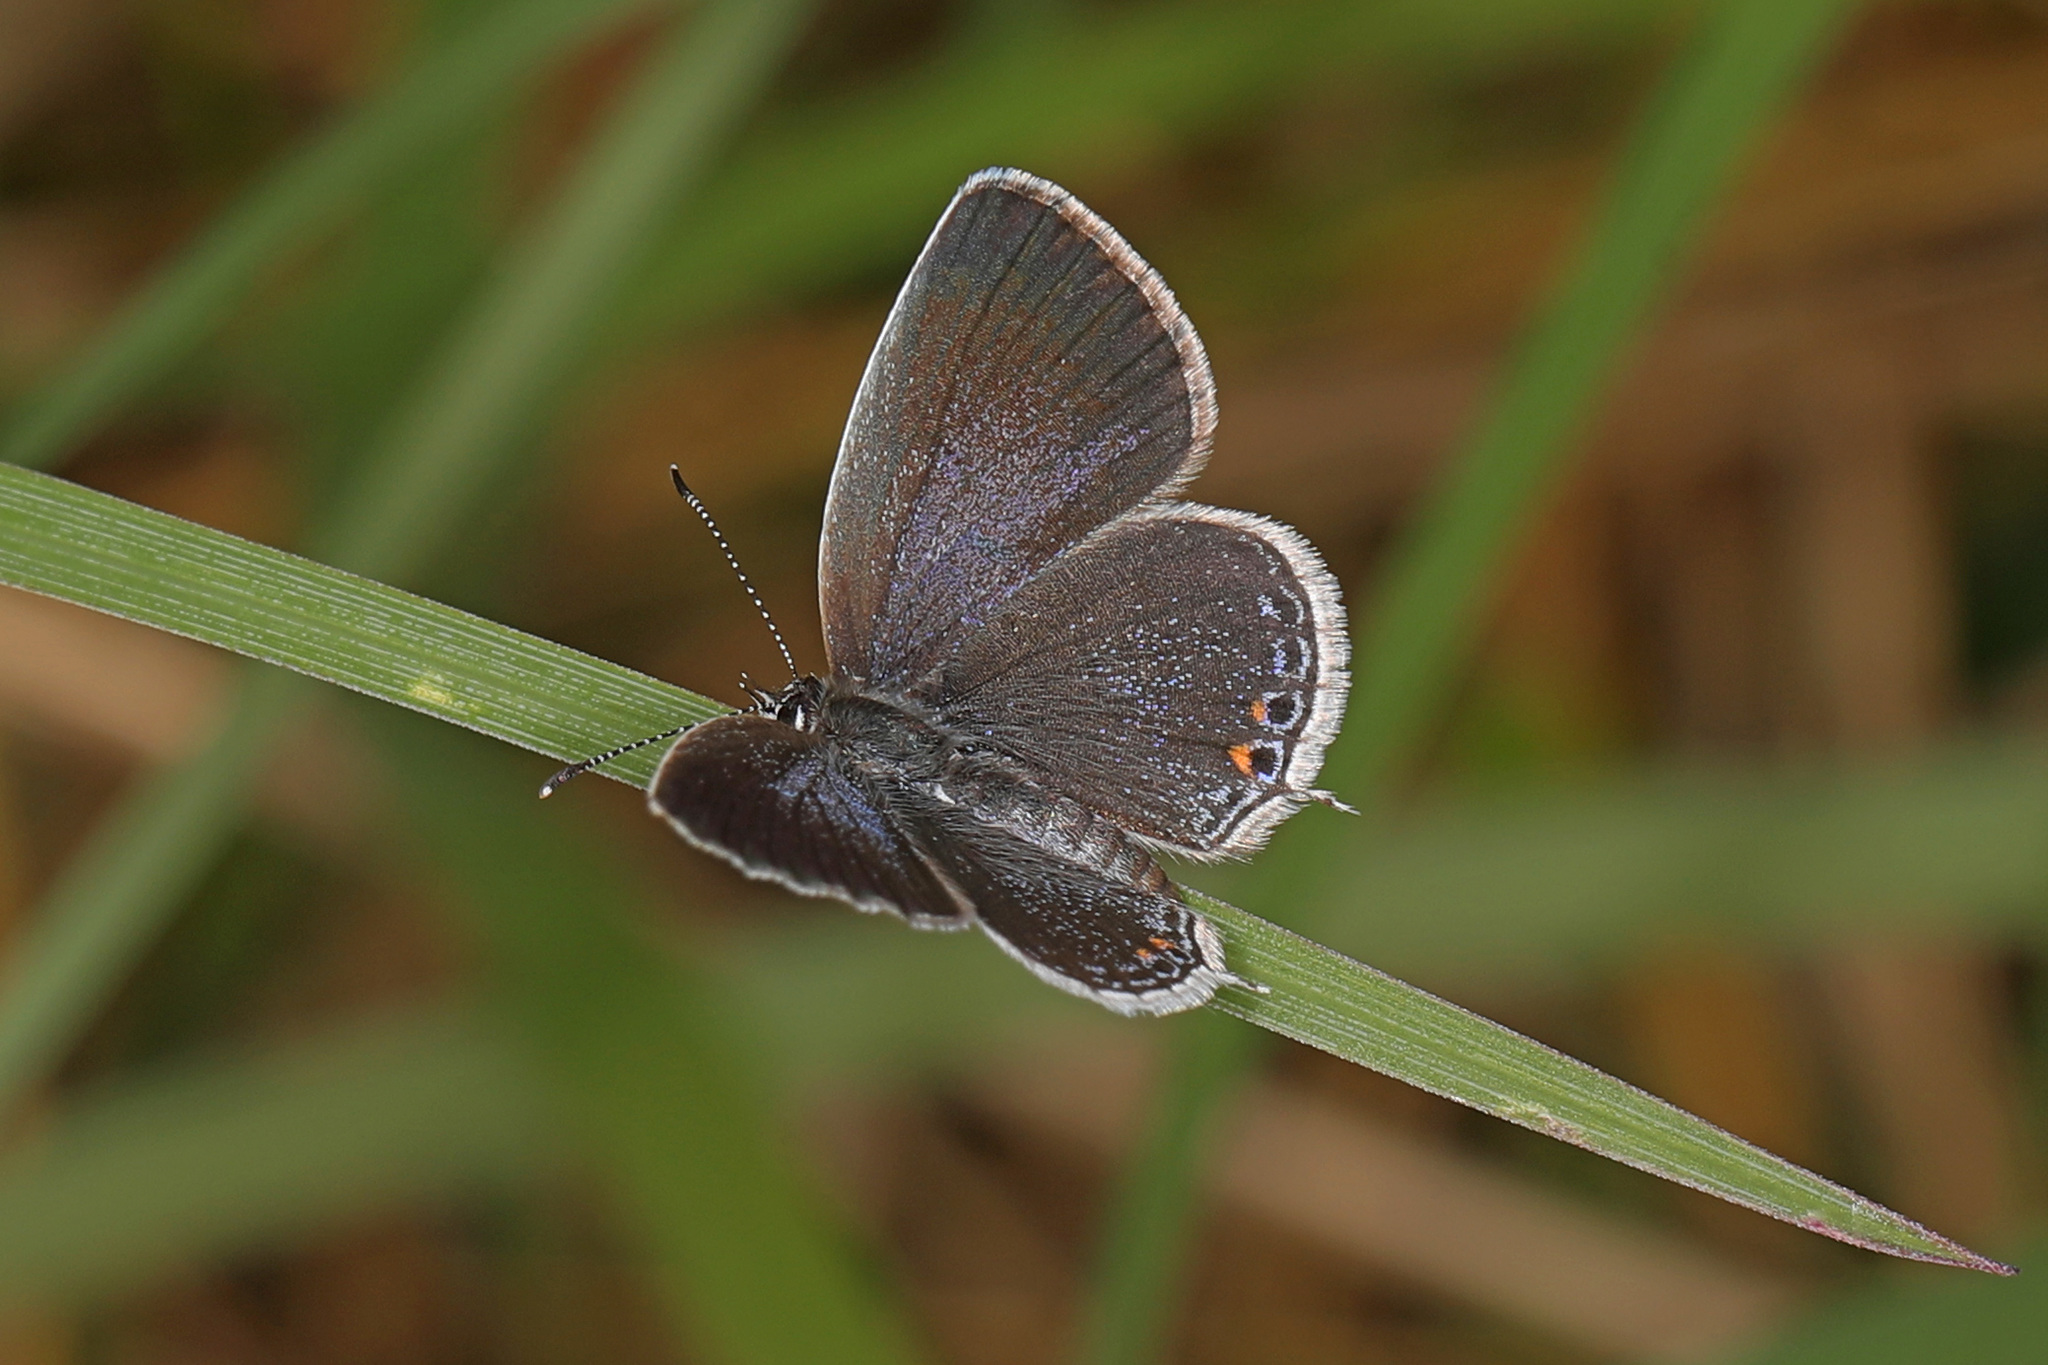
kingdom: Animalia
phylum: Arthropoda
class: Insecta
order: Lepidoptera
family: Lycaenidae
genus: Elkalyce
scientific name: Elkalyce comyntas
